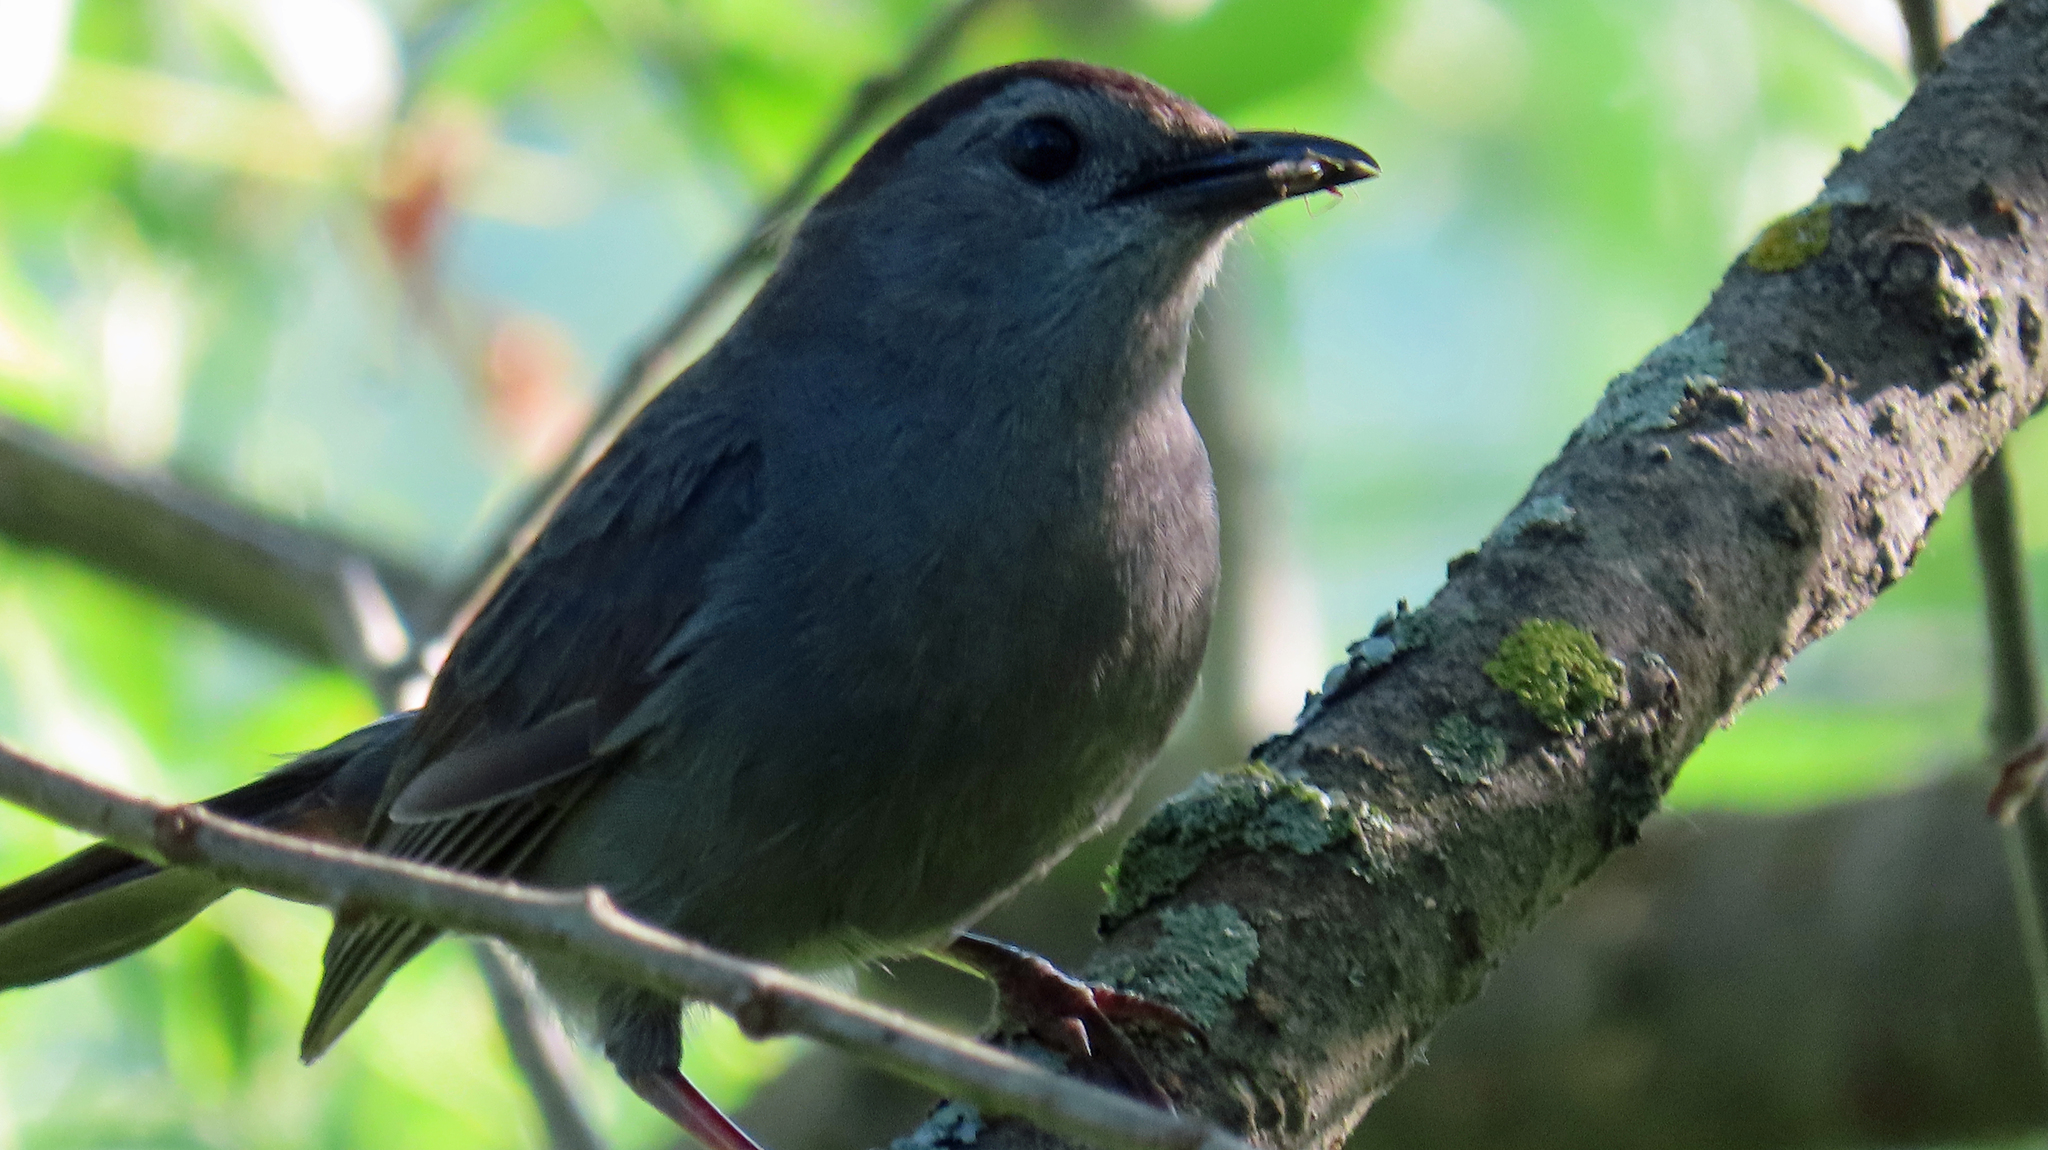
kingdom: Animalia
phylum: Chordata
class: Aves
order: Passeriformes
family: Mimidae
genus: Dumetella
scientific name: Dumetella carolinensis
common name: Gray catbird
